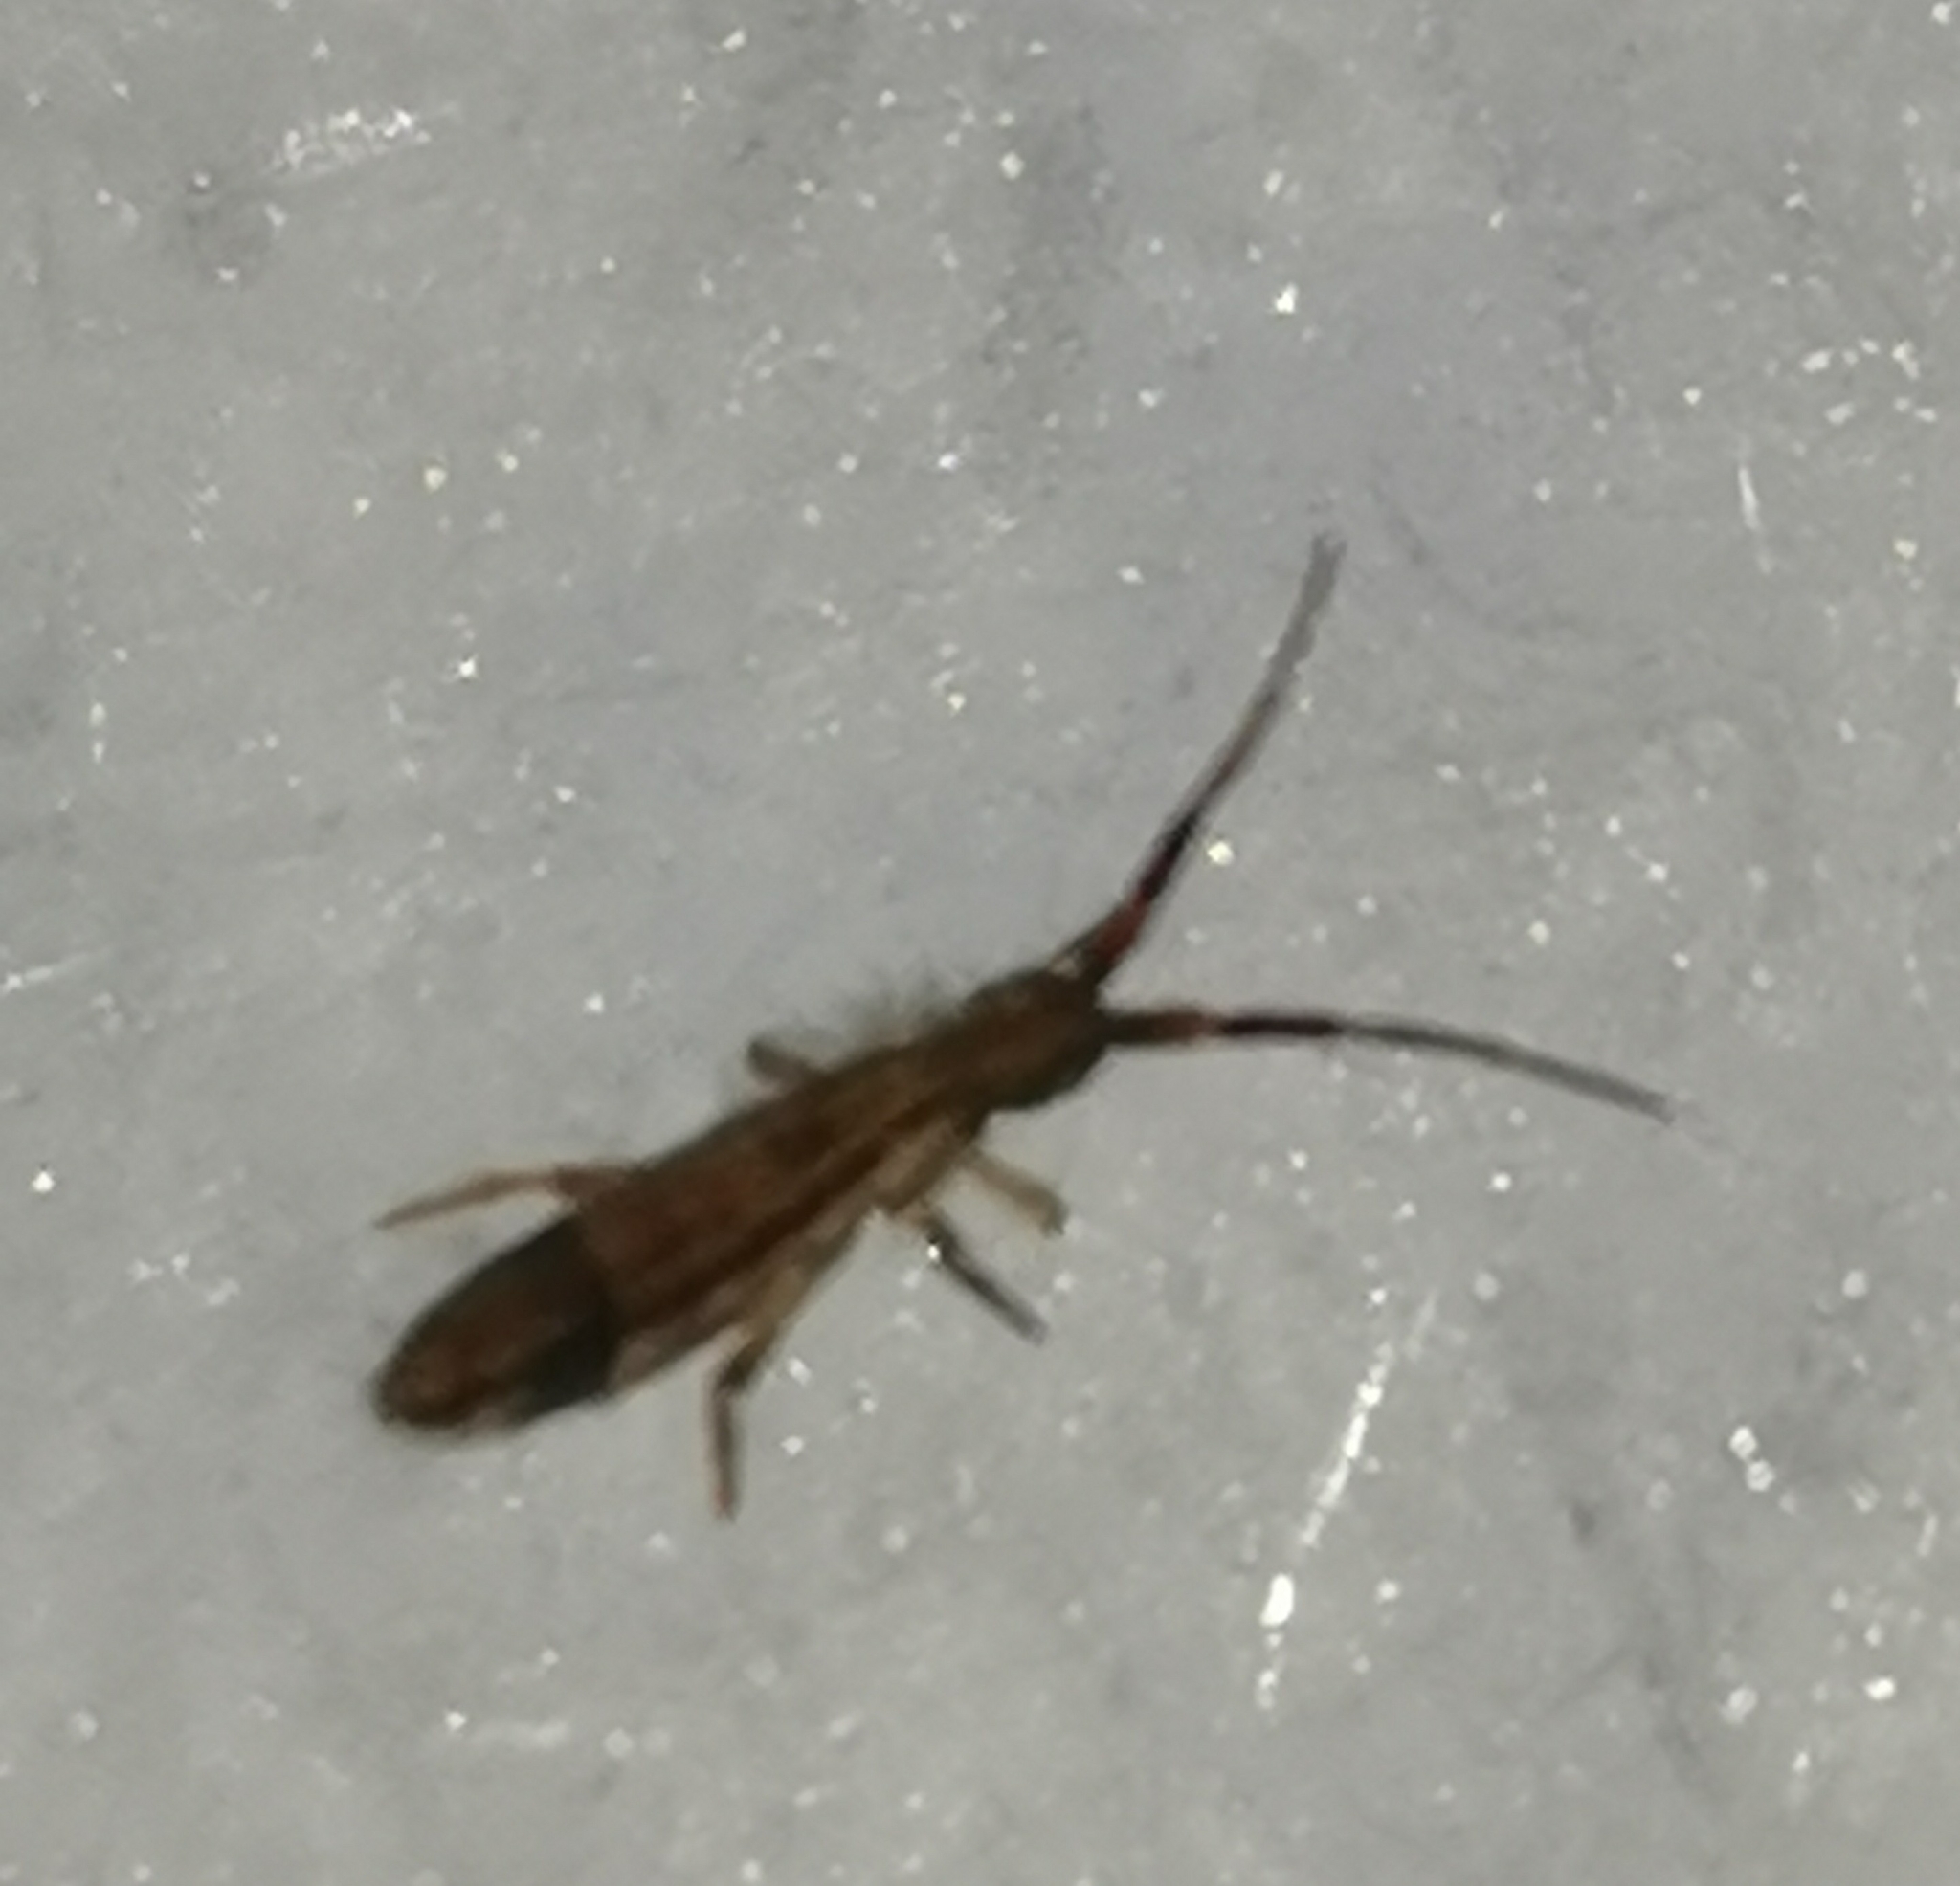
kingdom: Animalia
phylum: Arthropoda
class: Collembola
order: Entomobryomorpha
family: Entomobryidae
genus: Entomobrya
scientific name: Entomobrya nivalis
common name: Cosmopolitan springtail
